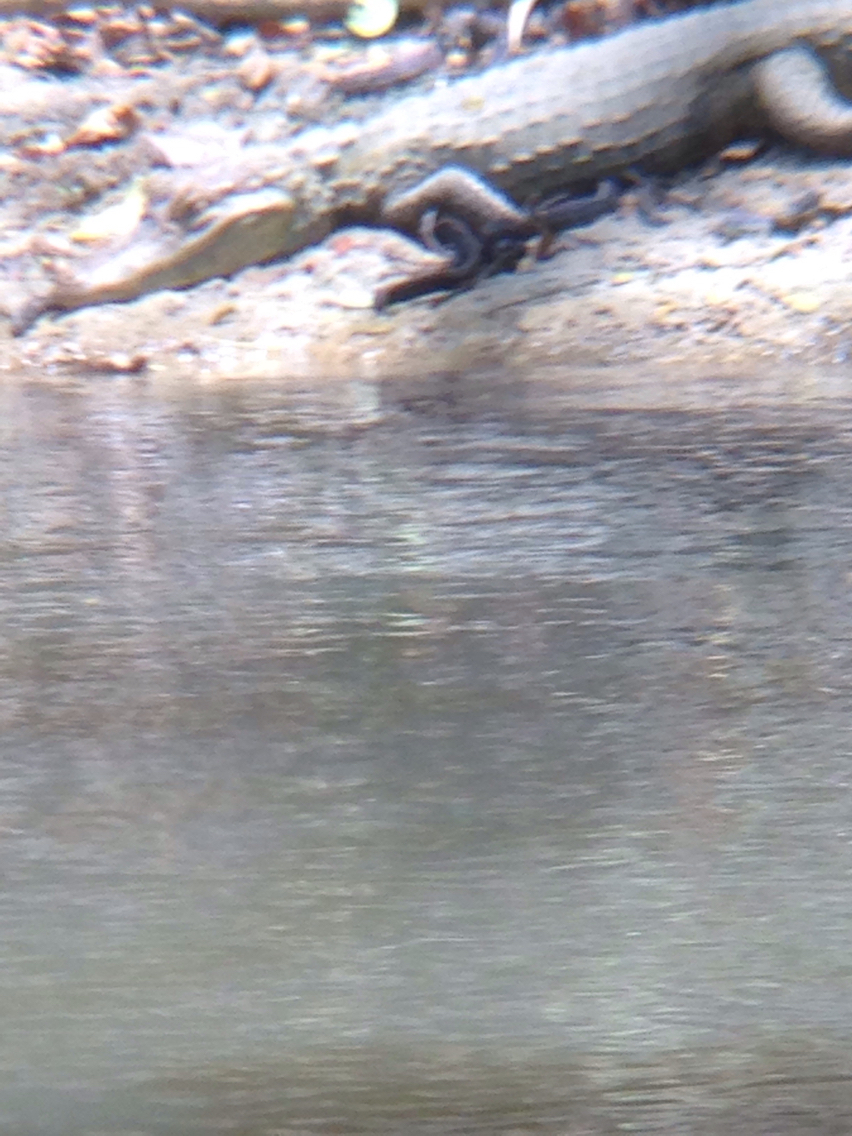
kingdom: Animalia
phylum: Chordata
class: Crocodylia
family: Alligatoridae
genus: Caiman
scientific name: Caiman crocodilus
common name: Common caiman
